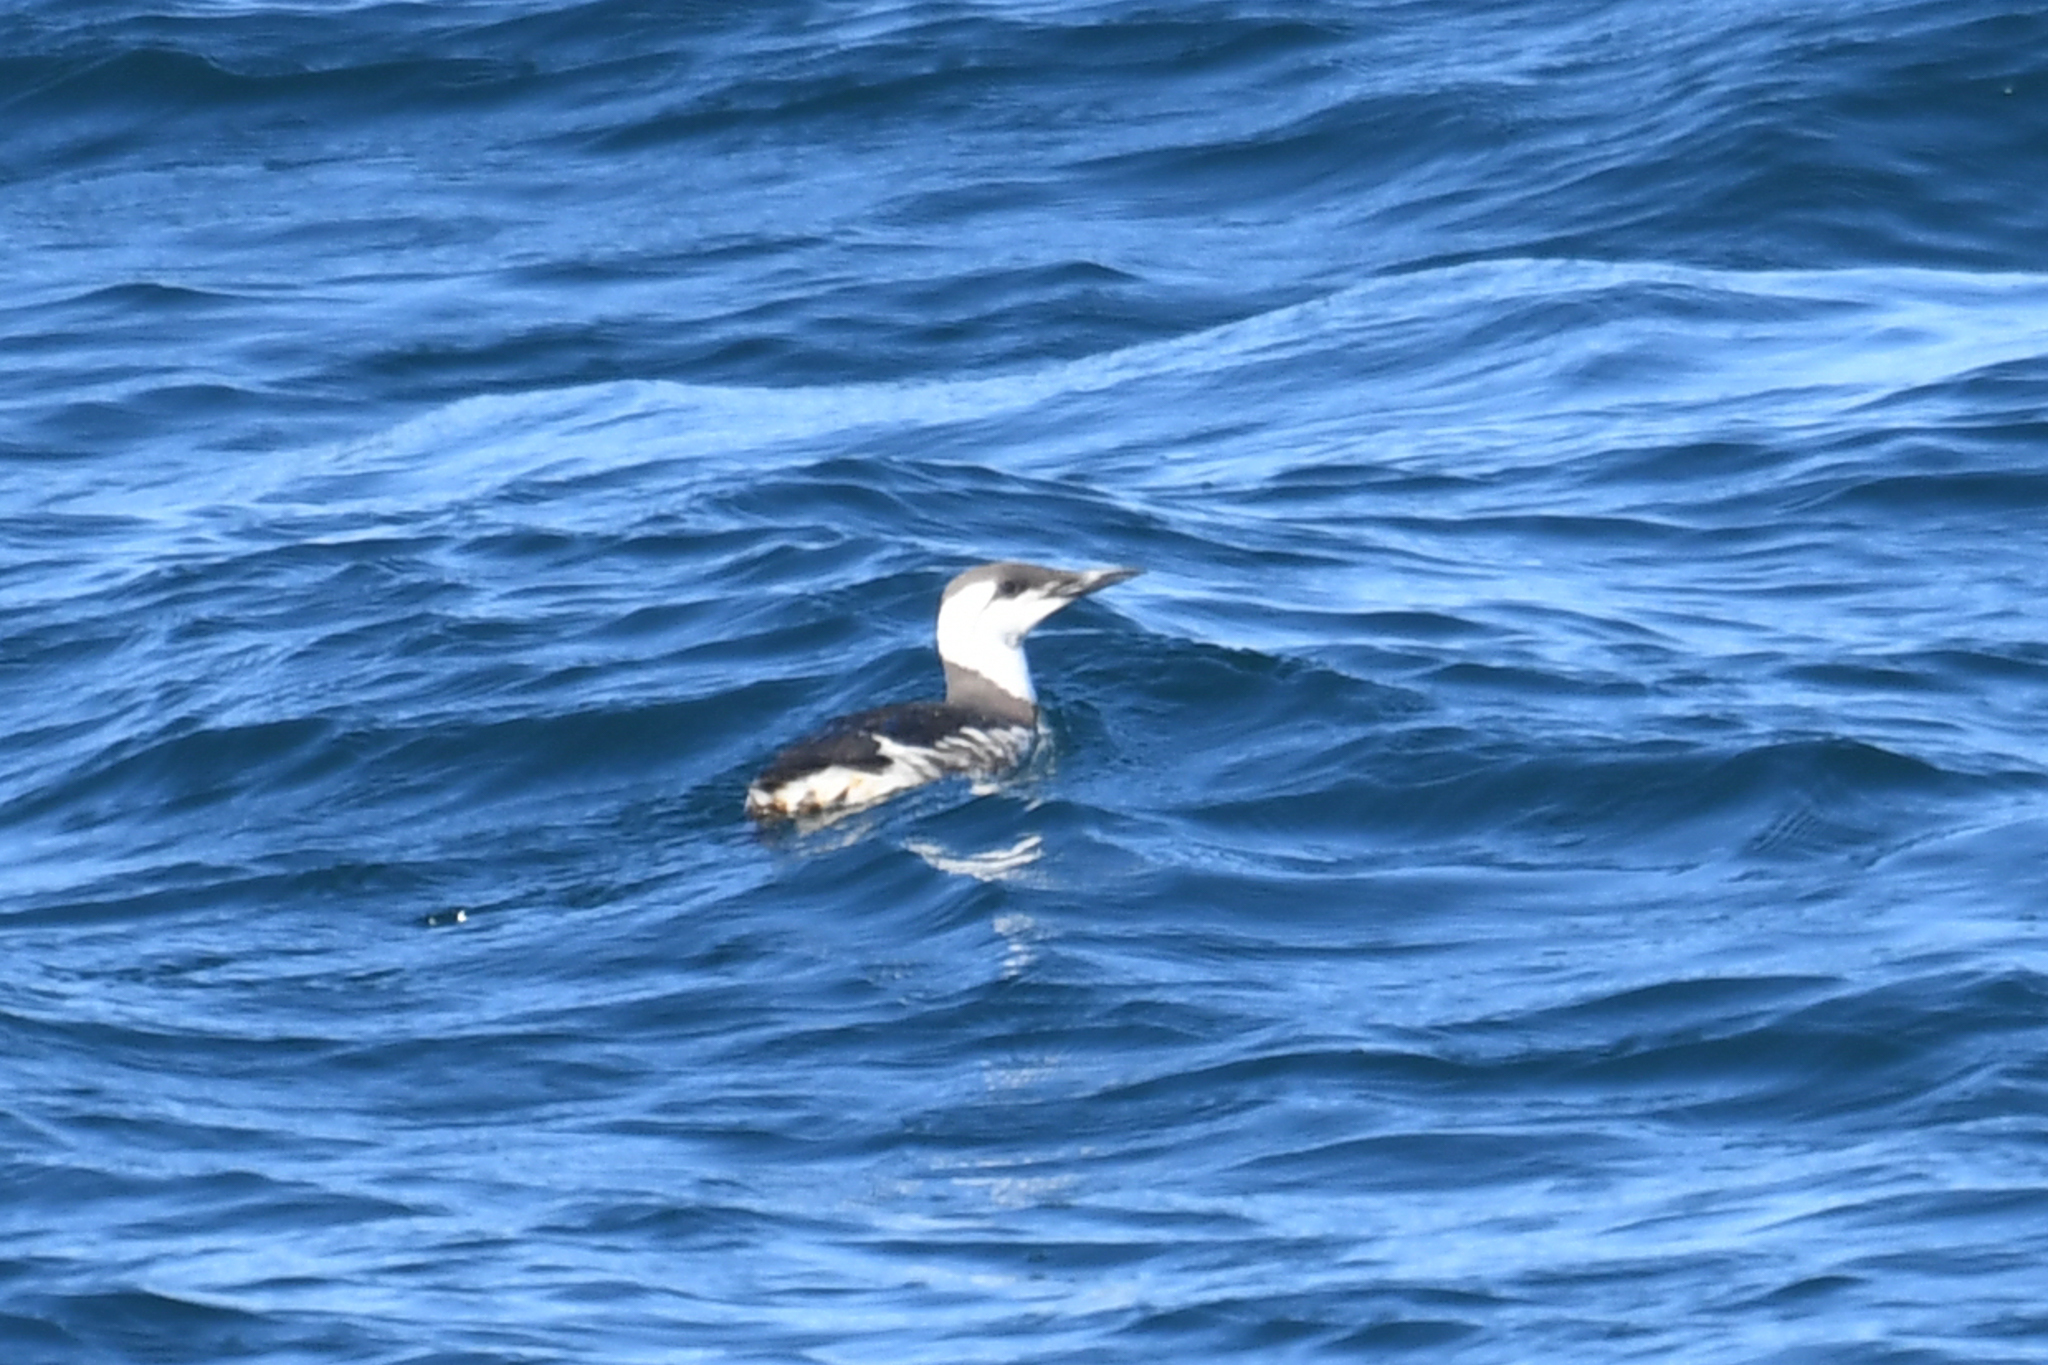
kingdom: Animalia
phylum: Chordata
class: Aves
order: Charadriiformes
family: Alcidae
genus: Uria
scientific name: Uria aalge
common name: Common murre
